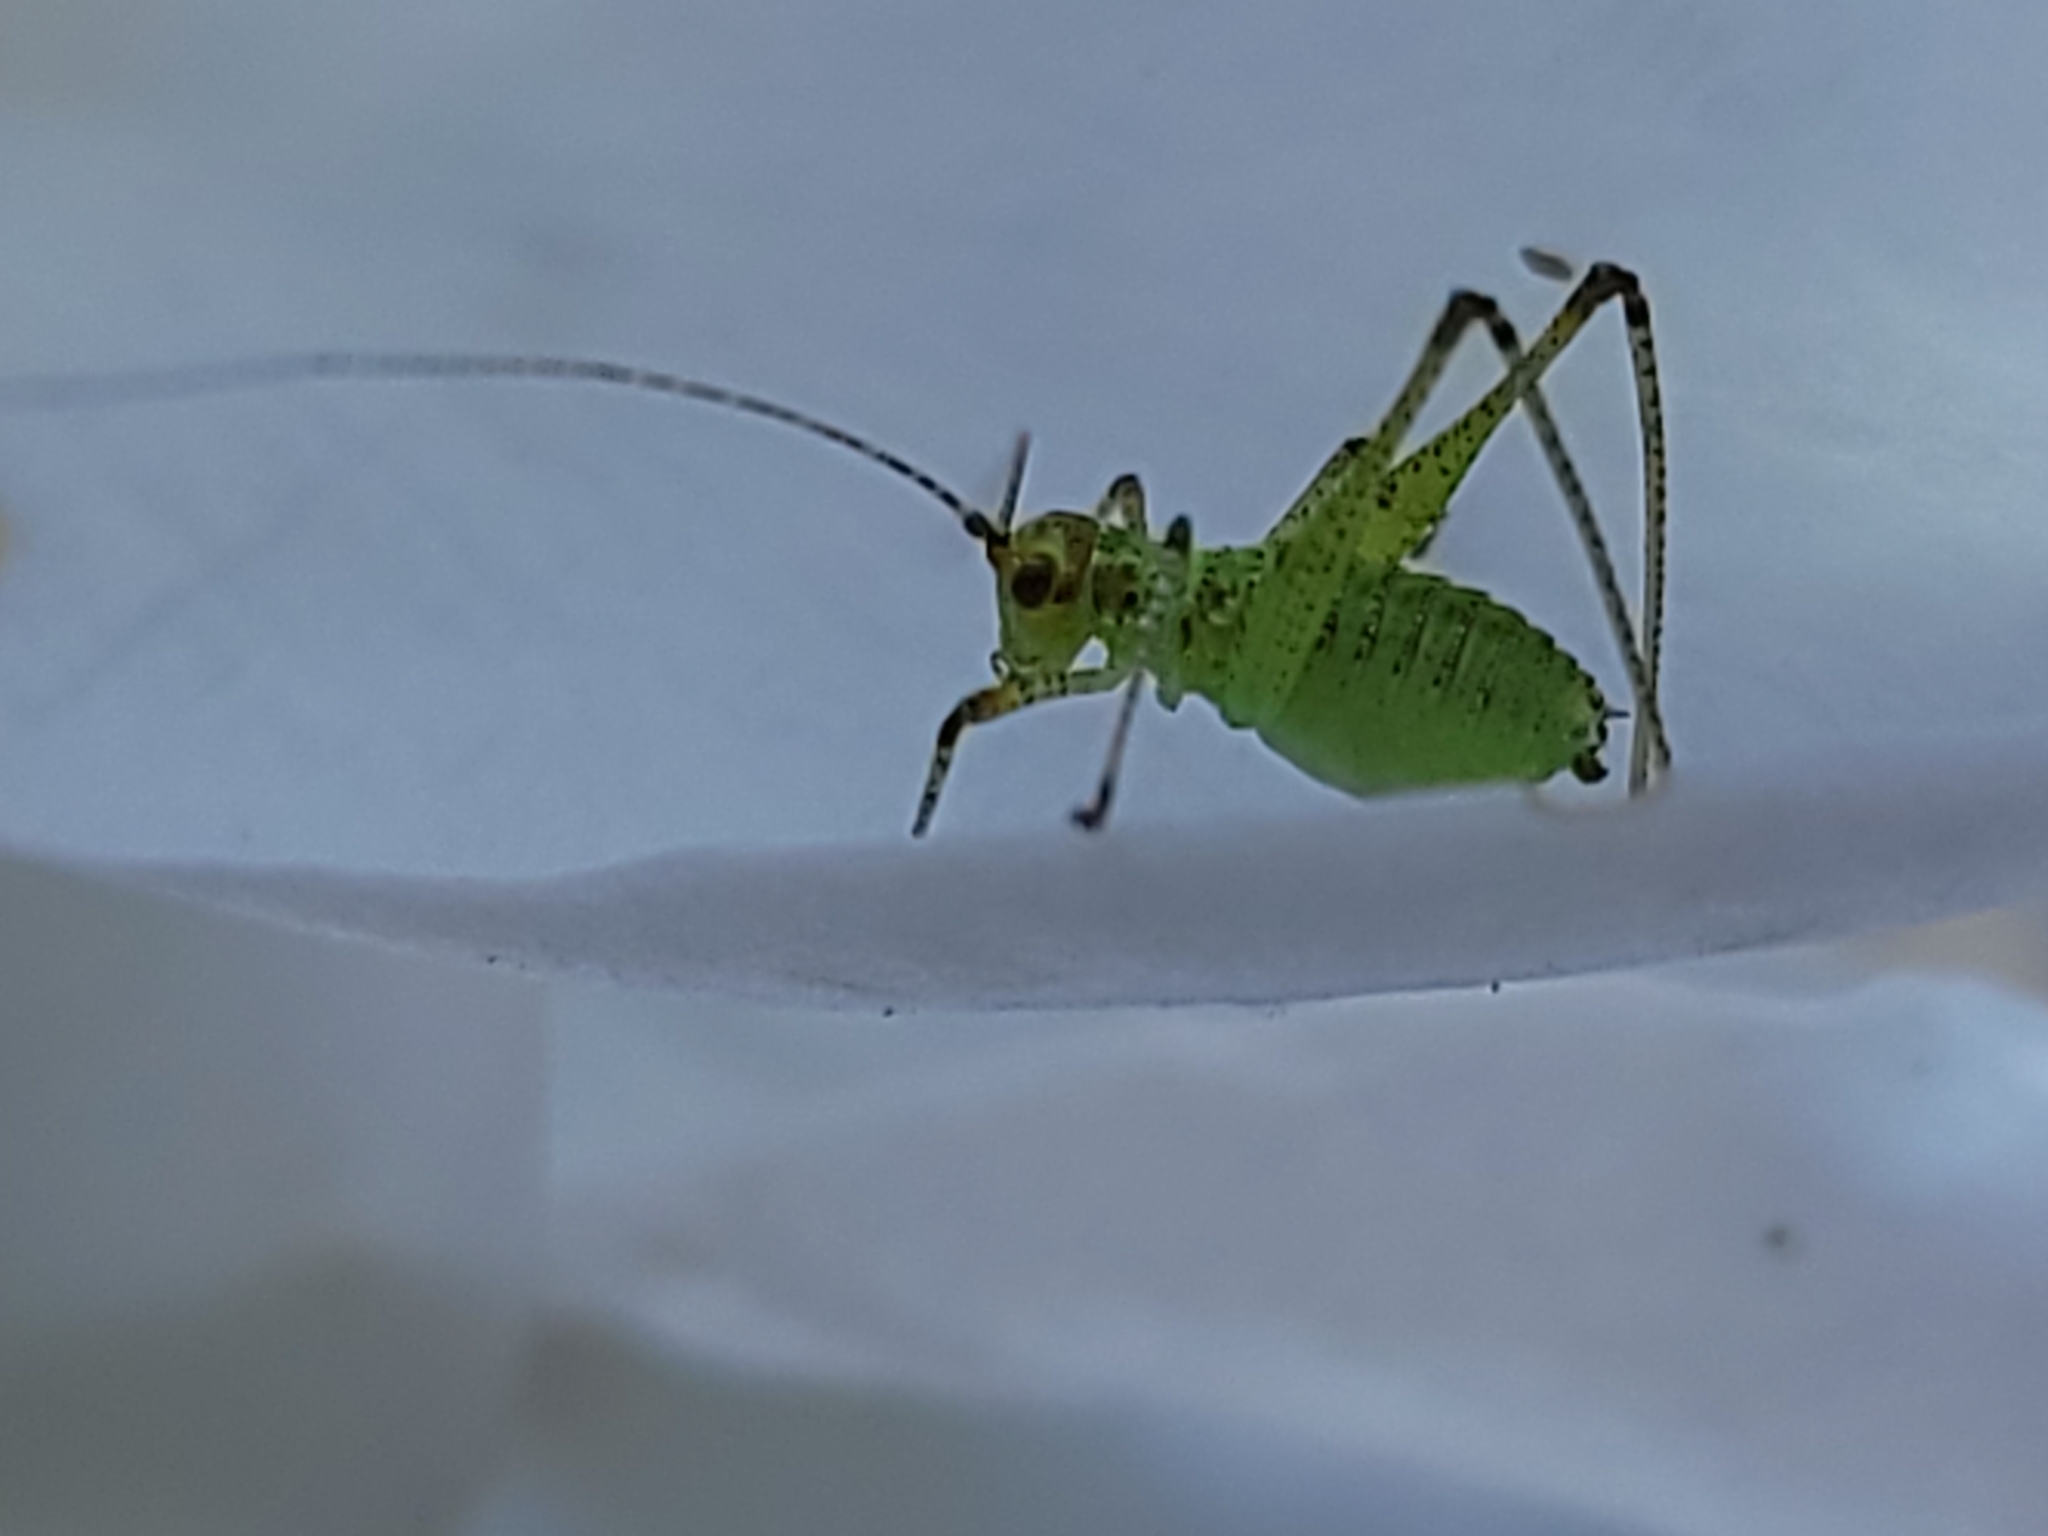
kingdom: Animalia
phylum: Arthropoda
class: Insecta
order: Orthoptera
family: Tettigoniidae
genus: Phaneroptera
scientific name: Phaneroptera nana
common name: Southern sickle bush-cricket
